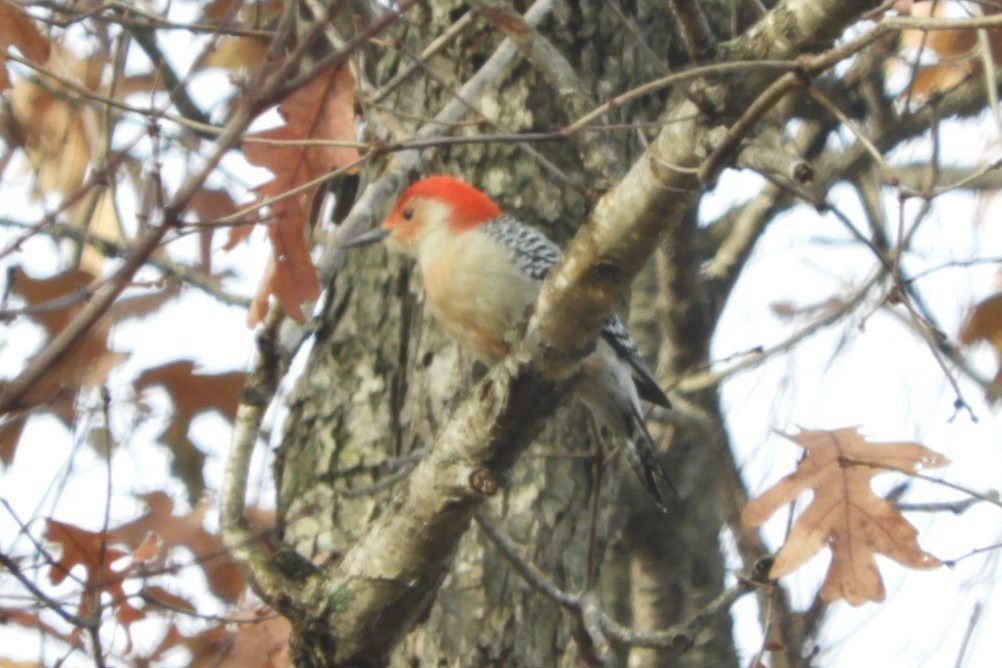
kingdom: Animalia
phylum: Chordata
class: Aves
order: Piciformes
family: Picidae
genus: Melanerpes
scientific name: Melanerpes carolinus
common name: Red-bellied woodpecker
